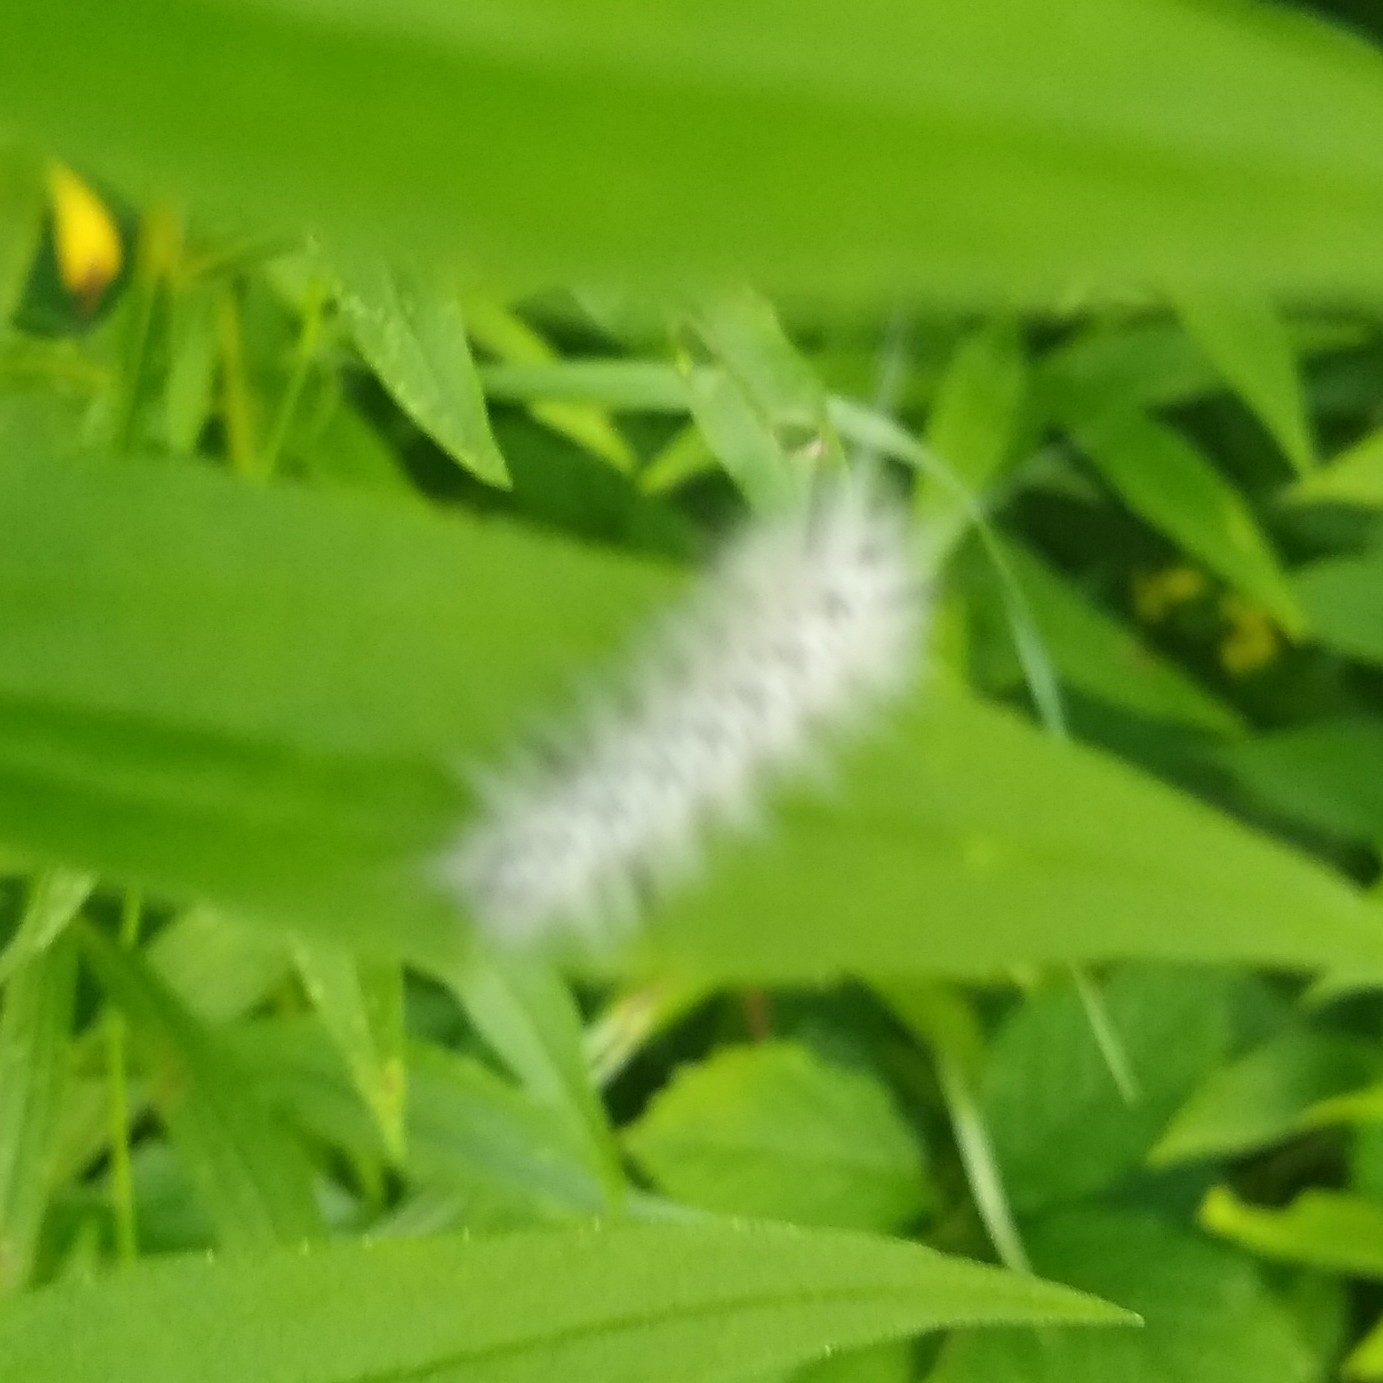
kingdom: Animalia
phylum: Arthropoda
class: Insecta
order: Lepidoptera
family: Erebidae
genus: Lophocampa
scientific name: Lophocampa caryae
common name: Hickory tussock moth
